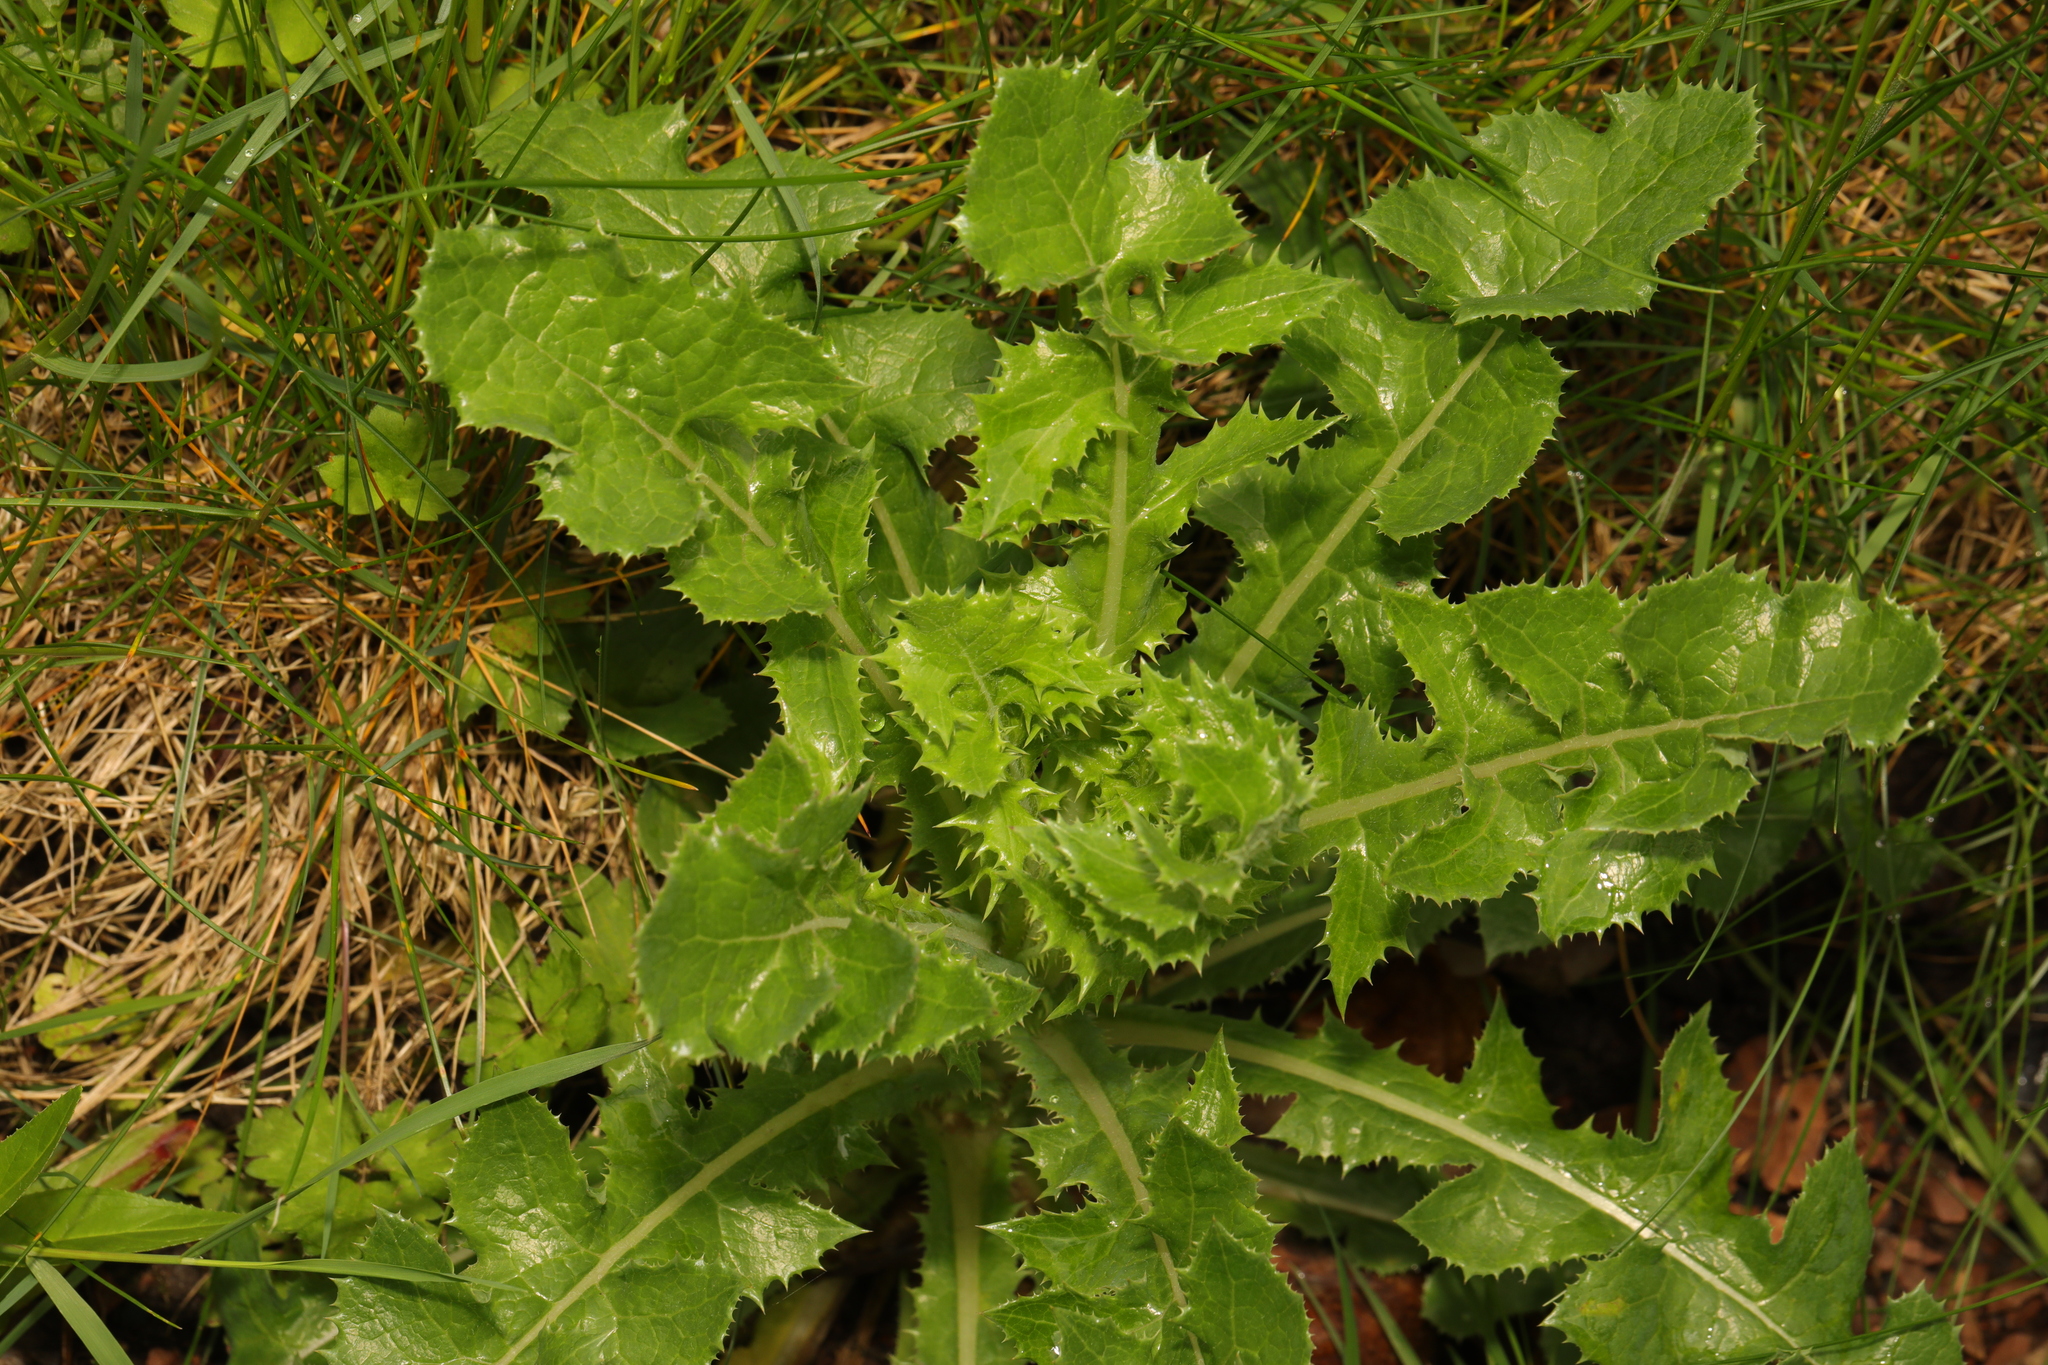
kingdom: Plantae
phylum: Tracheophyta
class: Magnoliopsida
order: Asterales
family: Asteraceae
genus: Sonchus
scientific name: Sonchus asper
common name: Prickly sow-thistle
